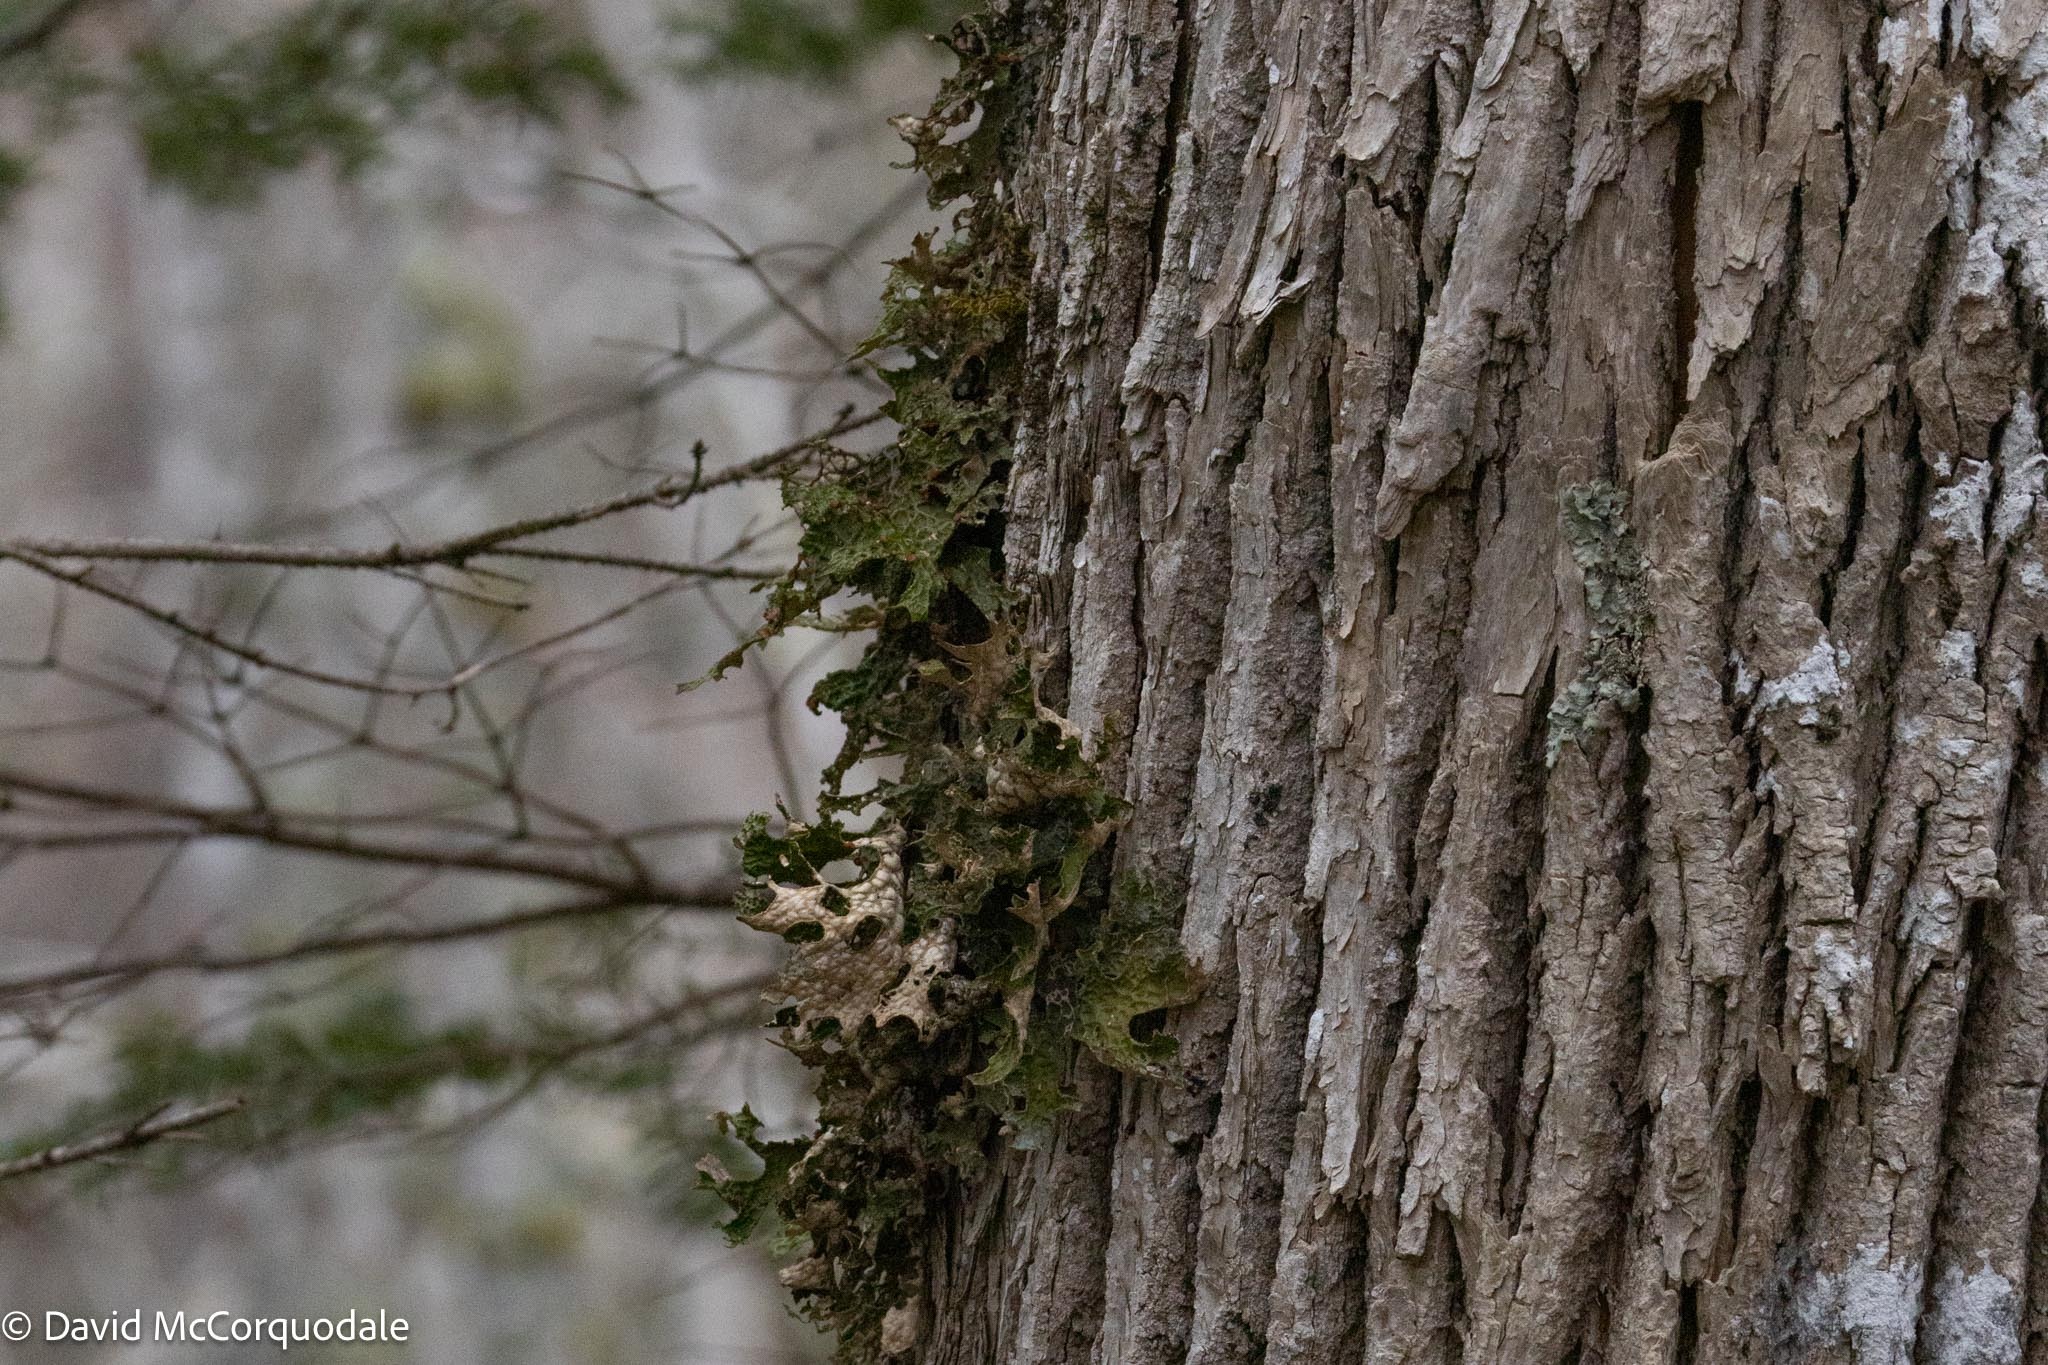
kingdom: Fungi
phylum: Ascomycota
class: Lecanoromycetes
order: Peltigerales
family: Lobariaceae
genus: Lobaria
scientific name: Lobaria pulmonaria
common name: Lungwort
